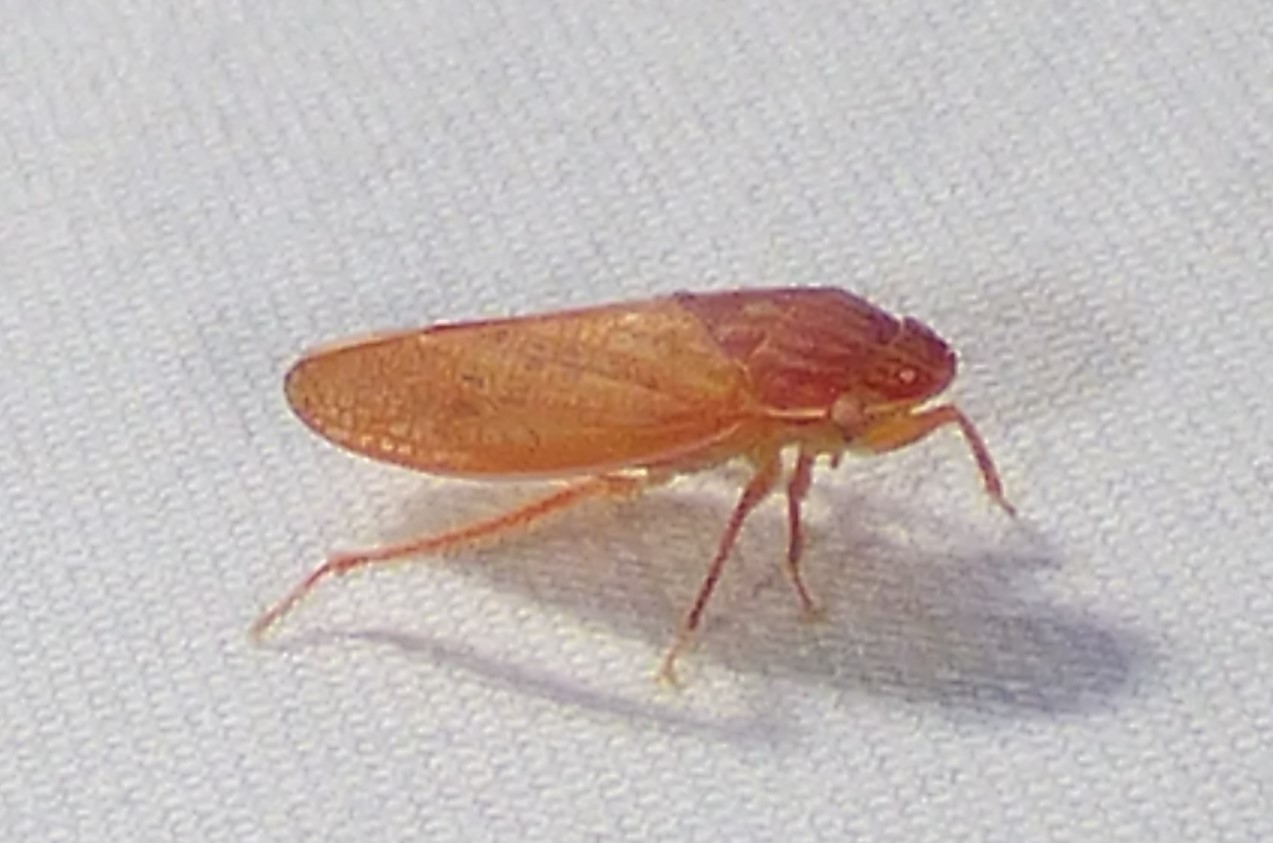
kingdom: Animalia
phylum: Arthropoda
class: Insecta
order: Hemiptera
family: Cicadellidae
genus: Gyponana
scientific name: Gyponana gladia
